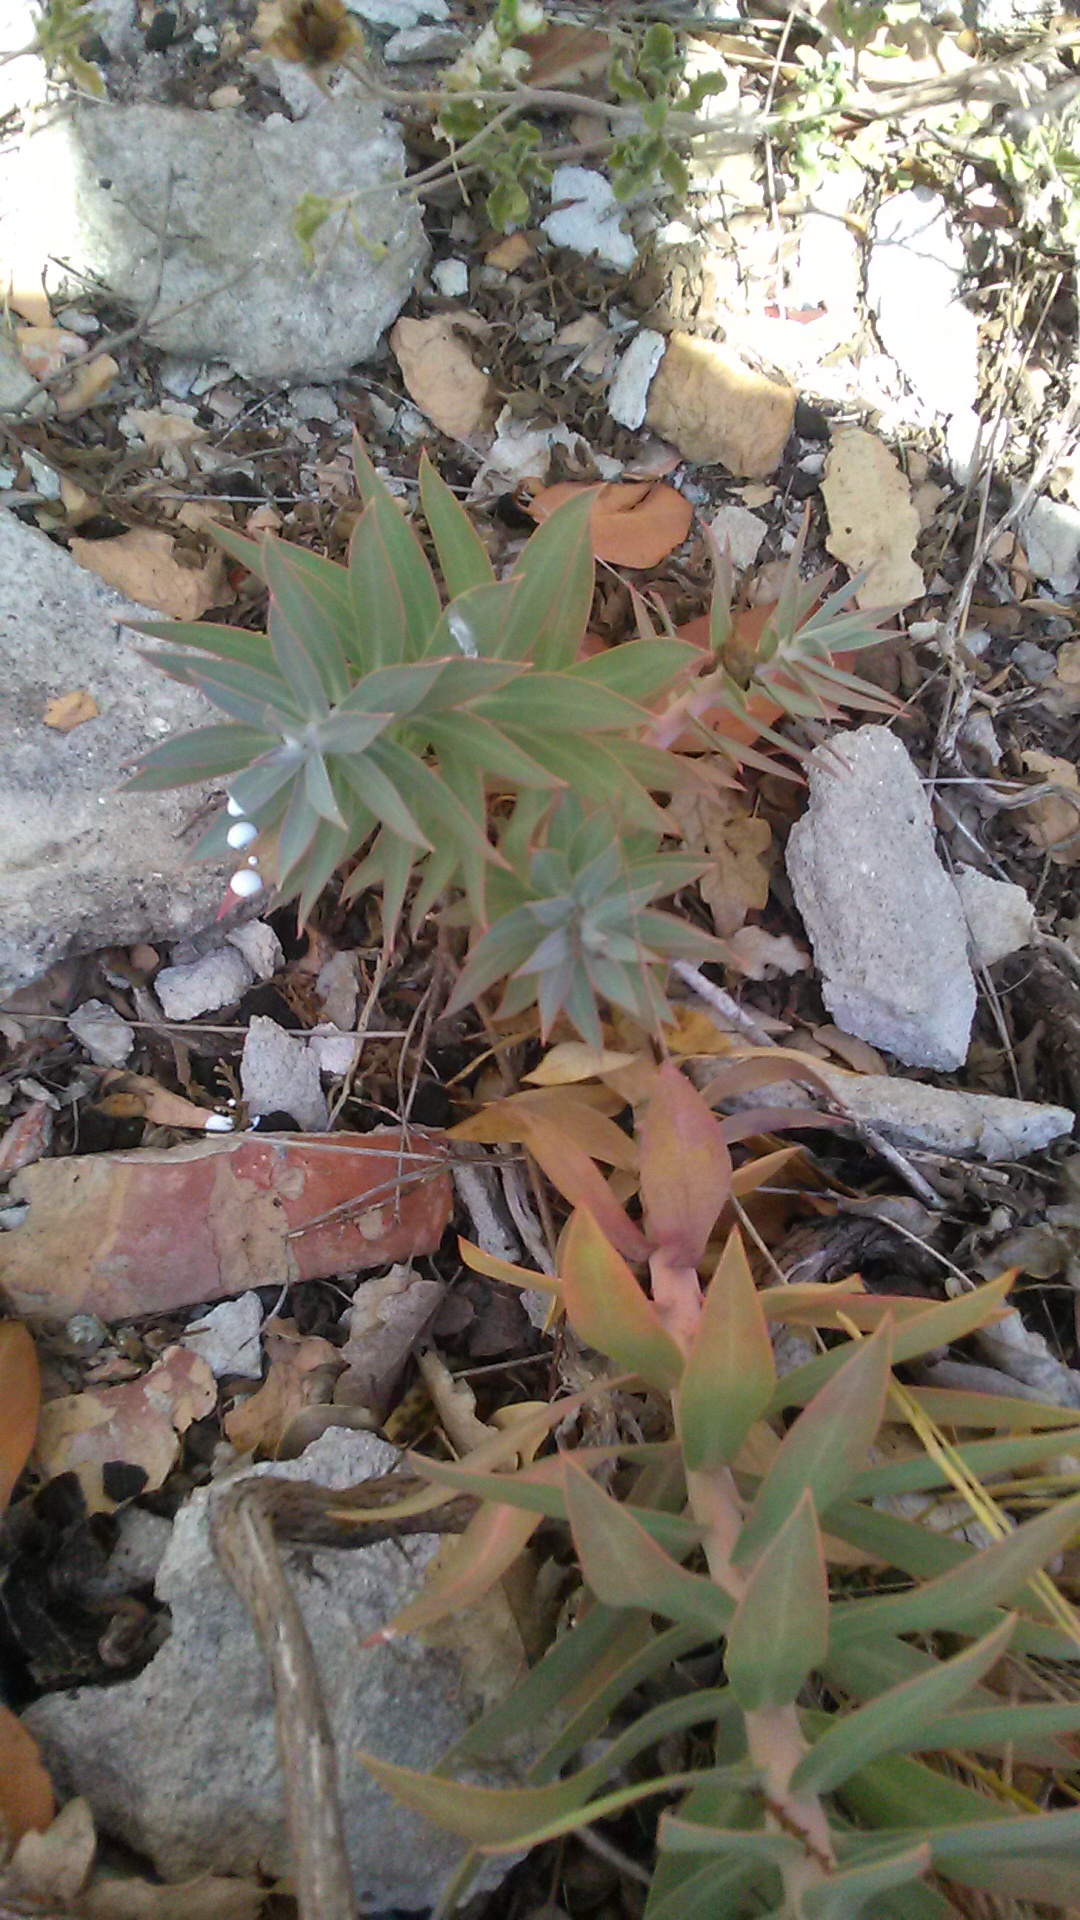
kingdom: Plantae
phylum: Tracheophyta
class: Magnoliopsida
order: Malpighiales
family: Euphorbiaceae
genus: Euphorbia
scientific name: Euphorbia rigida
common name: Upright myrtle spurge
